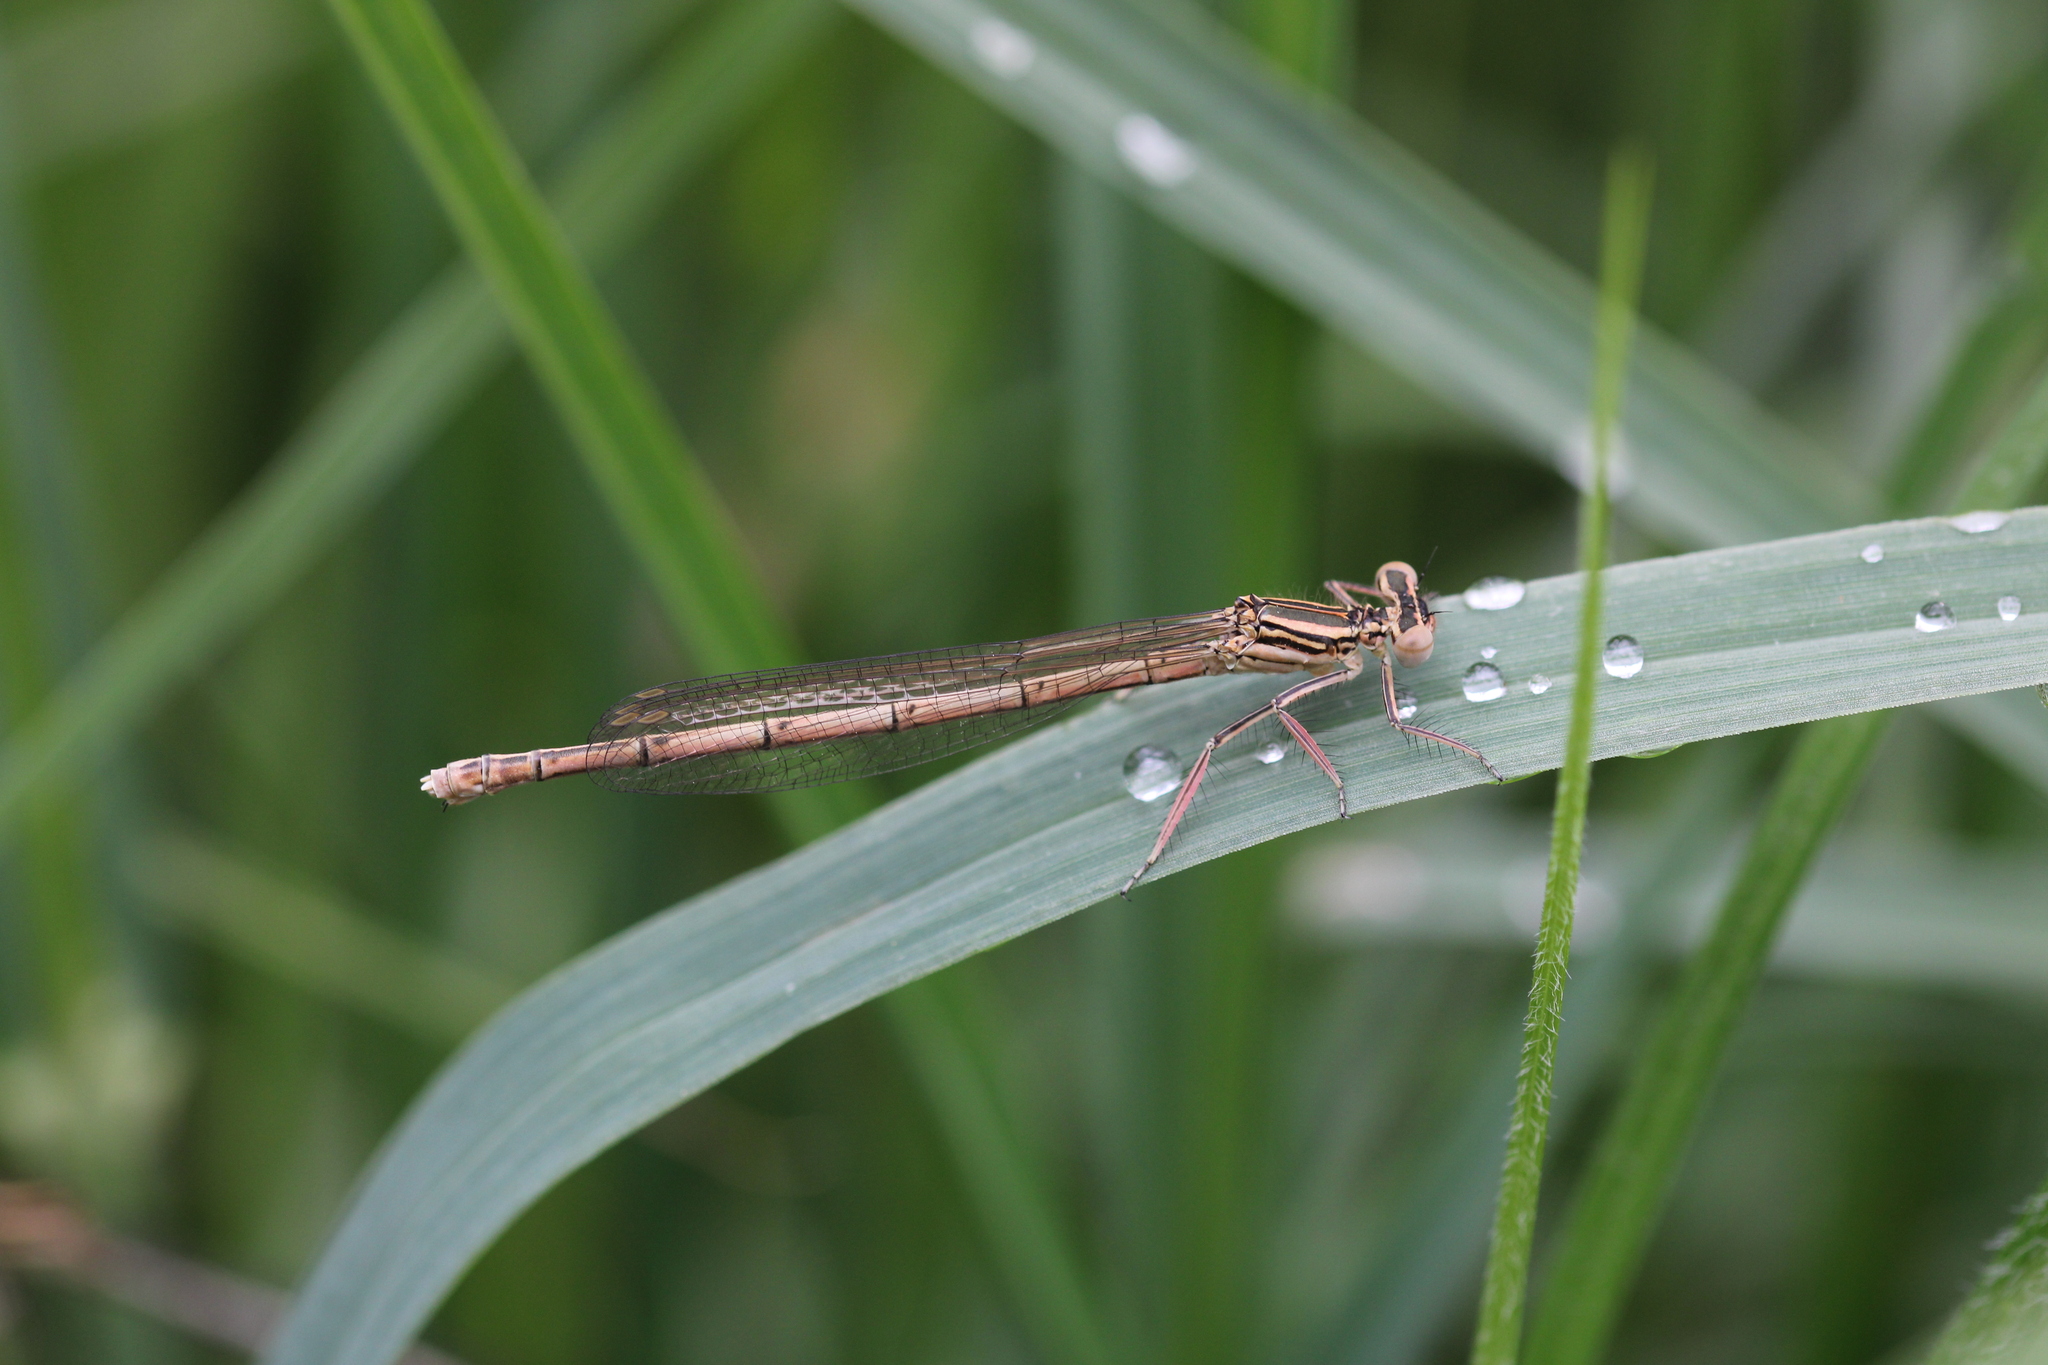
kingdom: Animalia
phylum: Arthropoda
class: Insecta
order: Odonata
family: Platycnemididae
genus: Platycnemis
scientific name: Platycnemis pennipes
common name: White-legged damselfly
